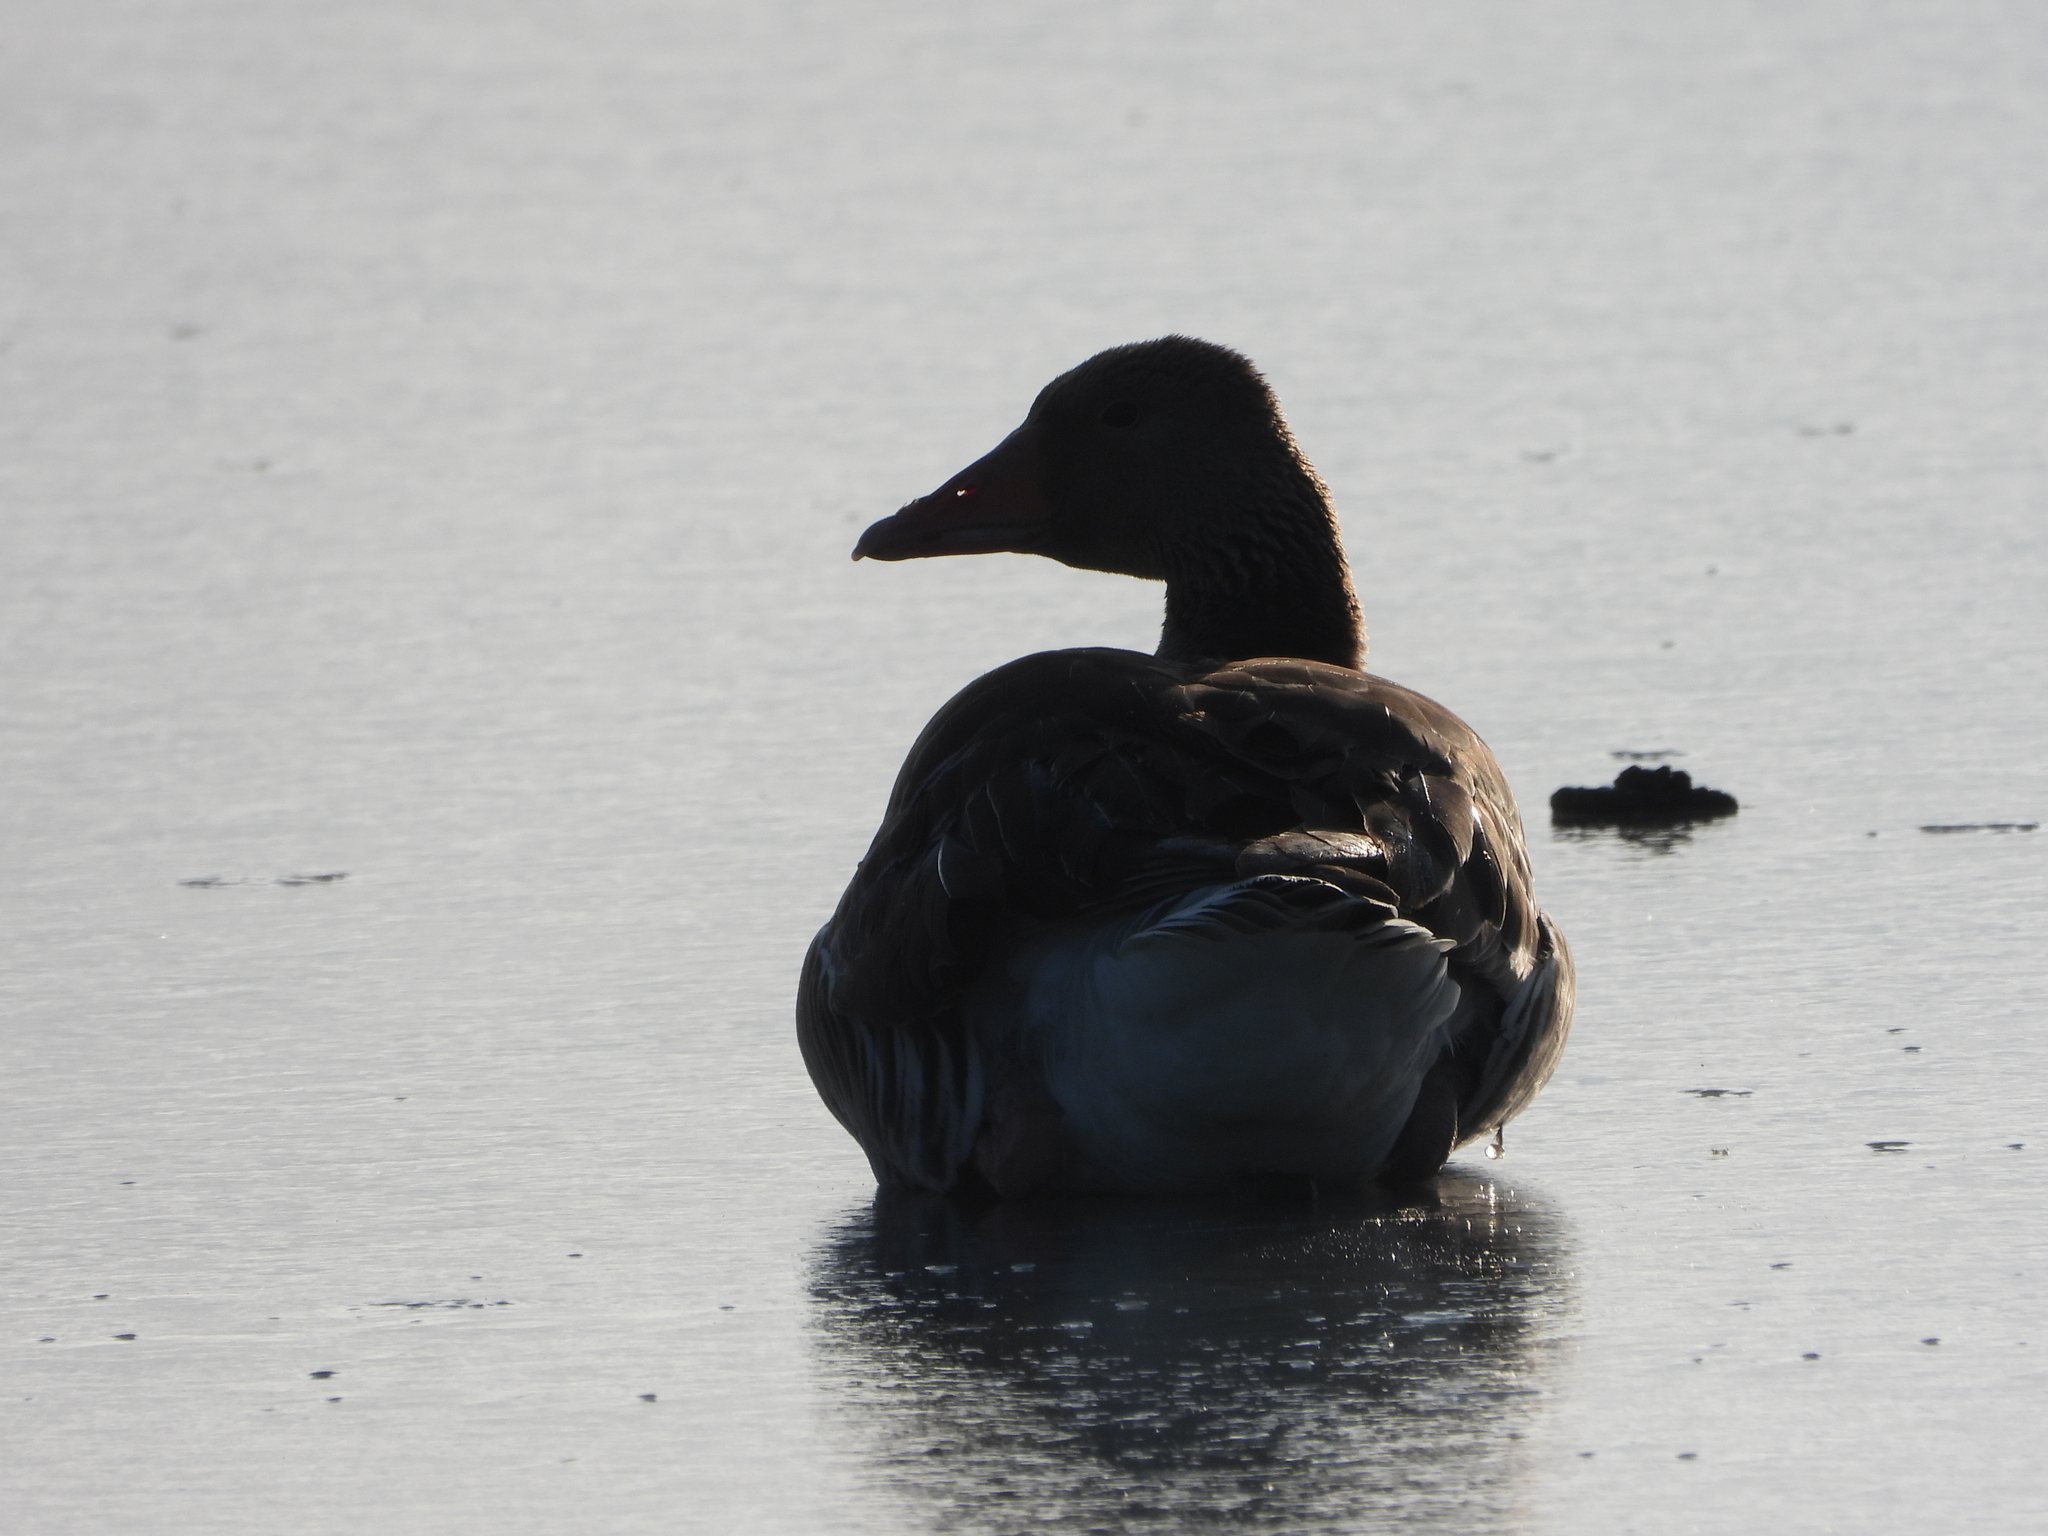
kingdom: Animalia
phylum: Chordata
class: Aves
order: Anseriformes
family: Anatidae
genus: Anser
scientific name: Anser anser
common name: Greylag goose
